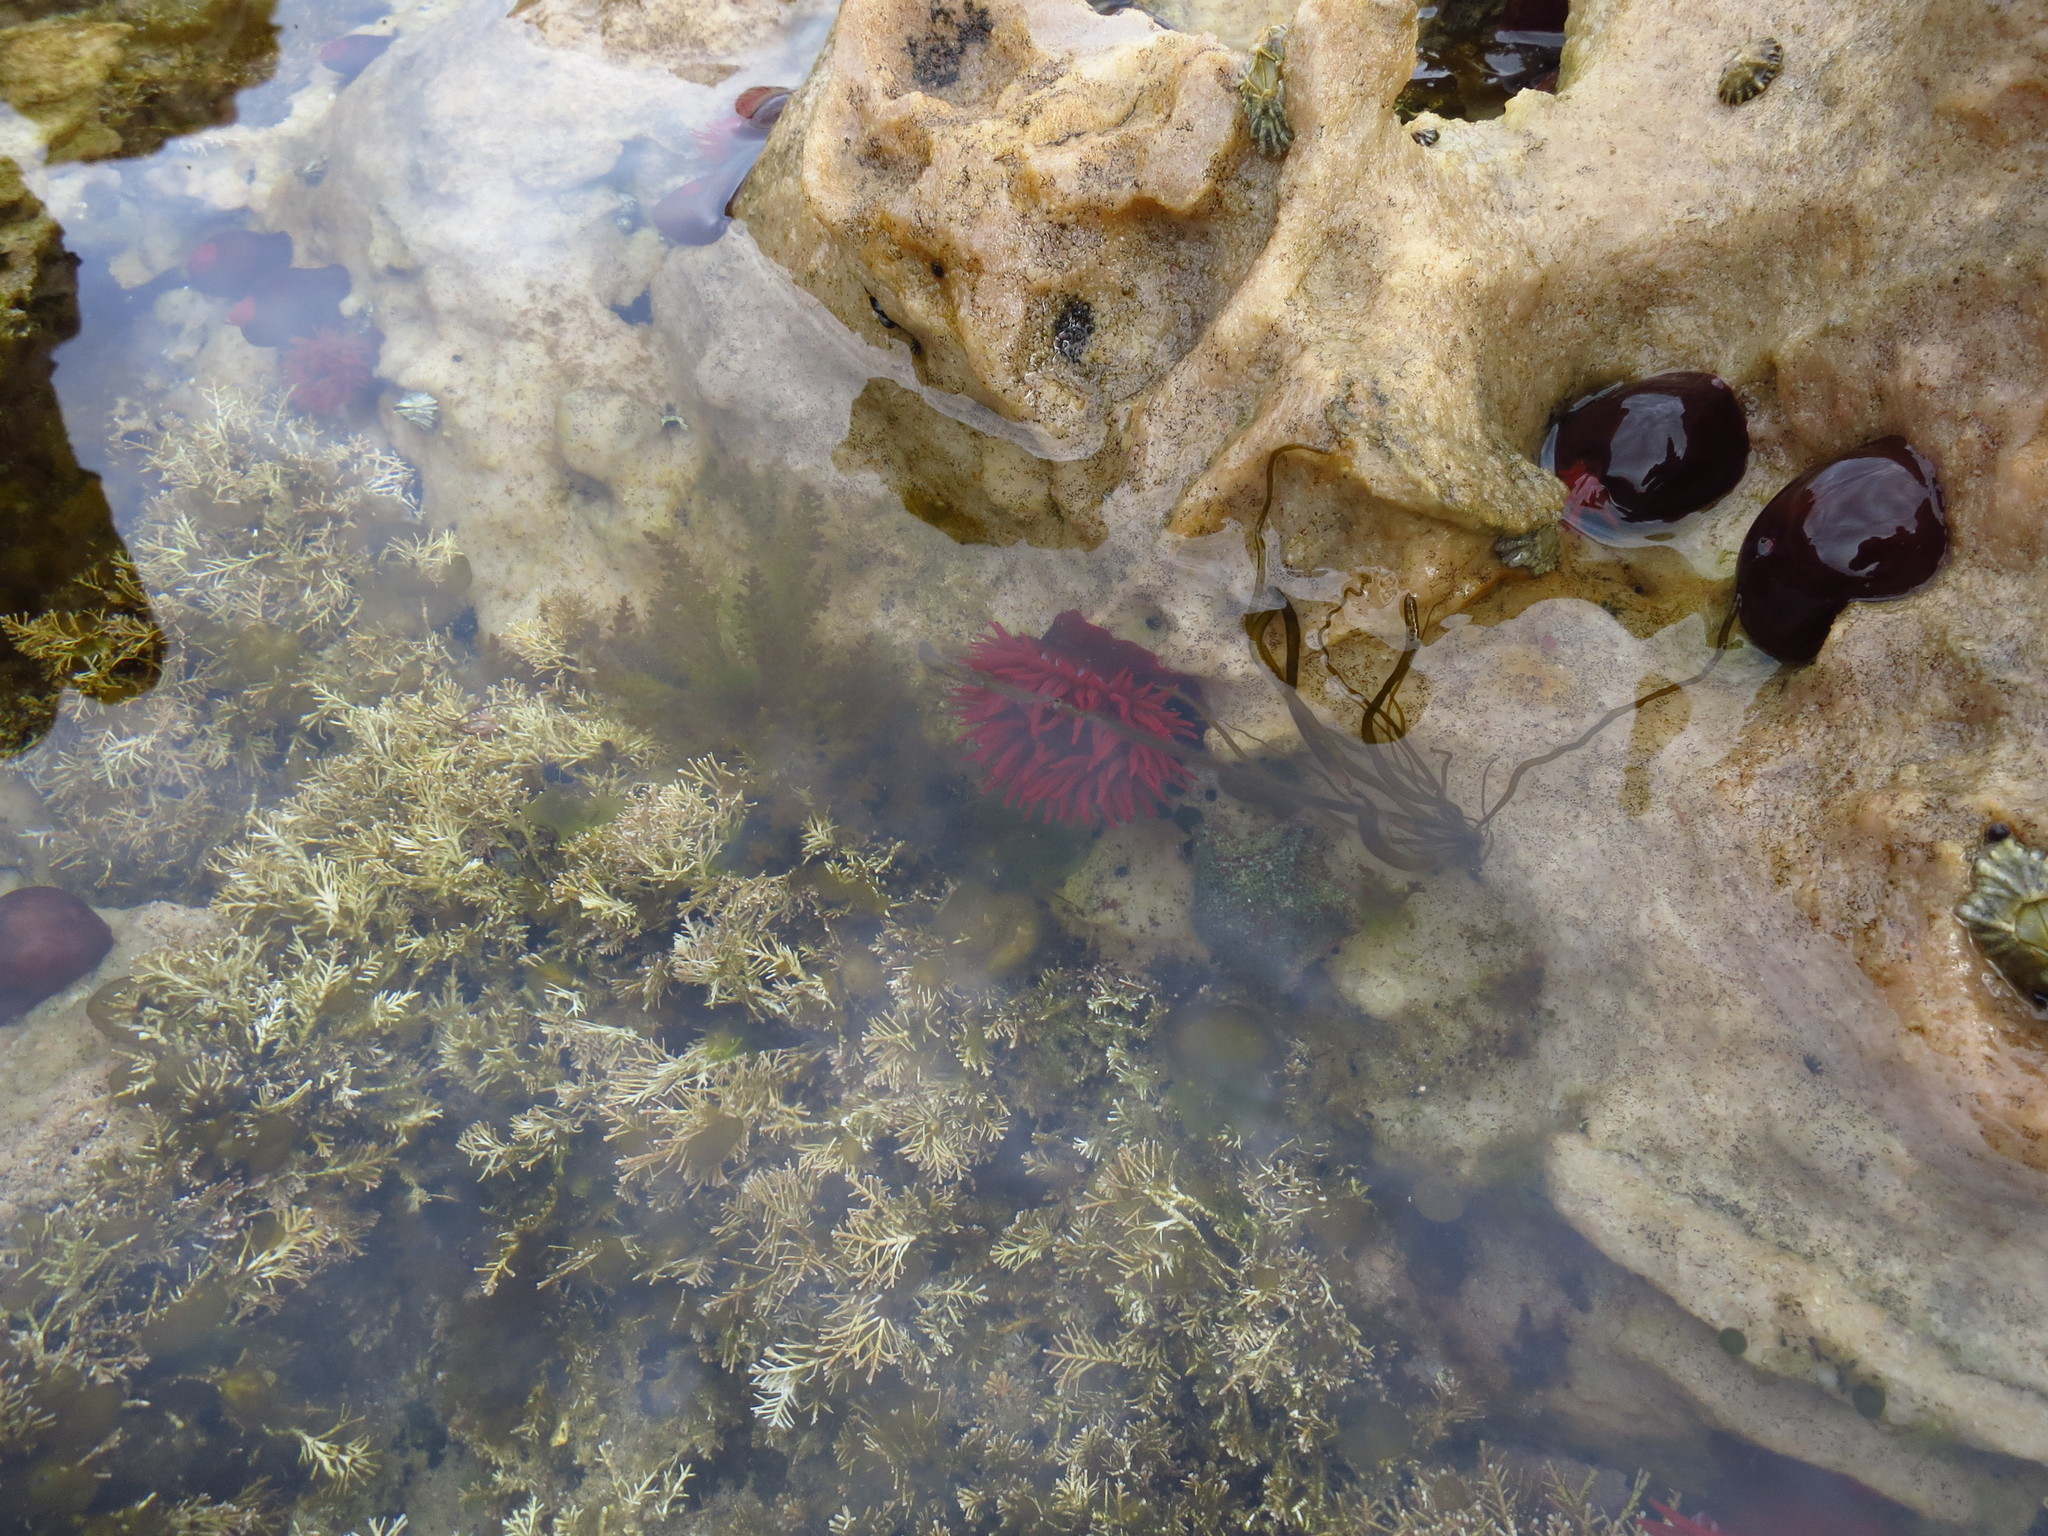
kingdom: Animalia
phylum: Cnidaria
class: Anthozoa
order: Actiniaria
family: Actiniidae
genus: Actinia
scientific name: Actinia tenebrosa
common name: Waratah anemone
